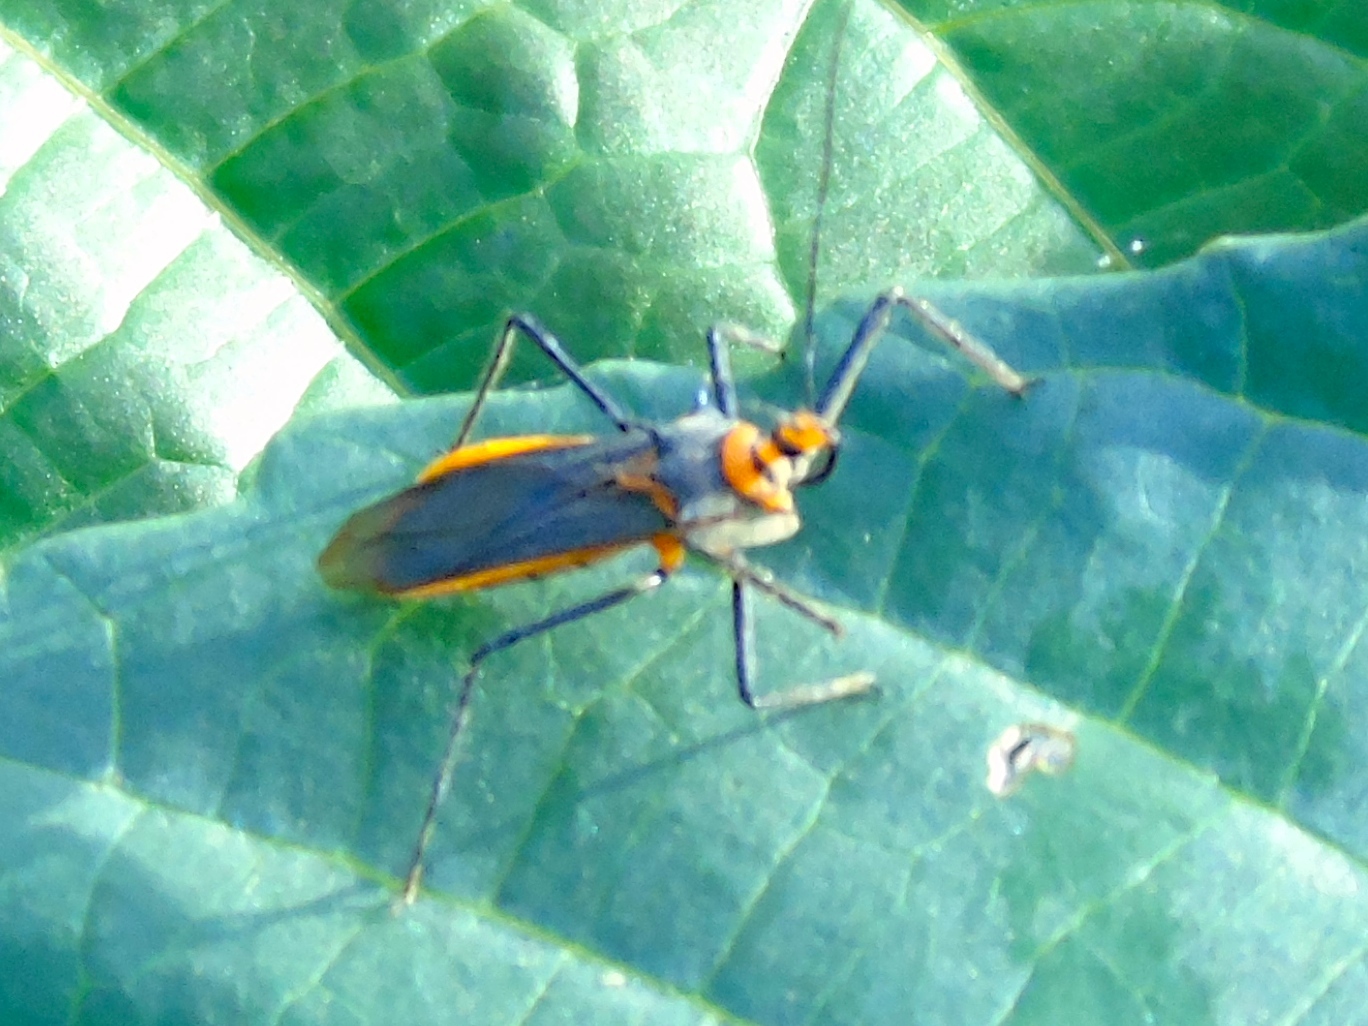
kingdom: Animalia
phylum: Arthropoda
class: Insecta
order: Hemiptera
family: Reduviidae
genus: Repipta
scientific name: Repipta fuscipes
